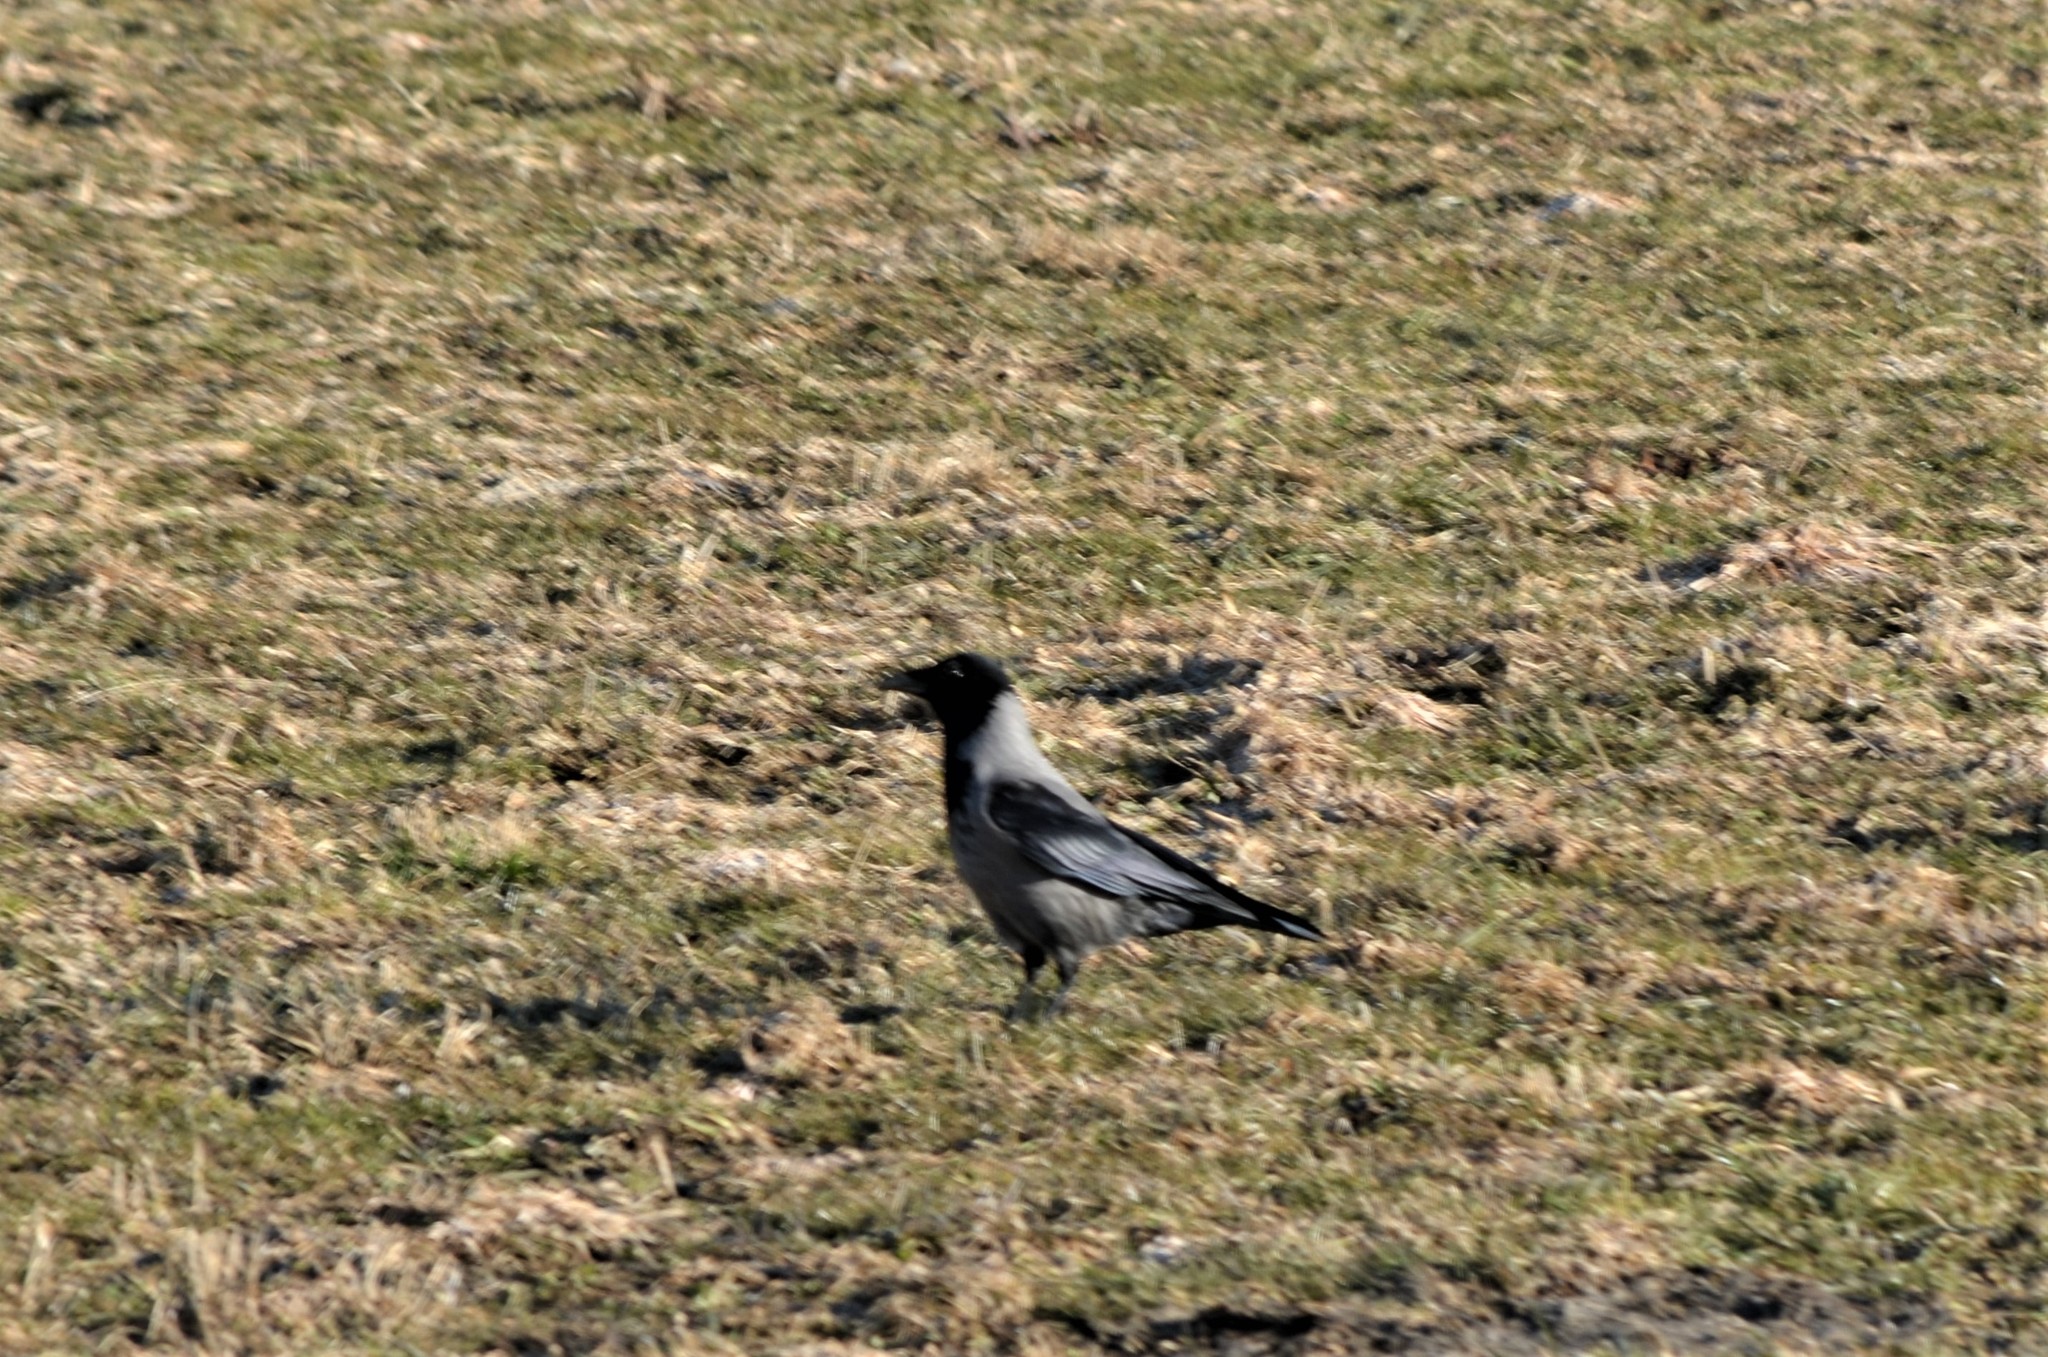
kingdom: Animalia
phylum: Chordata
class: Aves
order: Passeriformes
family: Corvidae
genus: Corvus
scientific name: Corvus cornix
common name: Hooded crow
